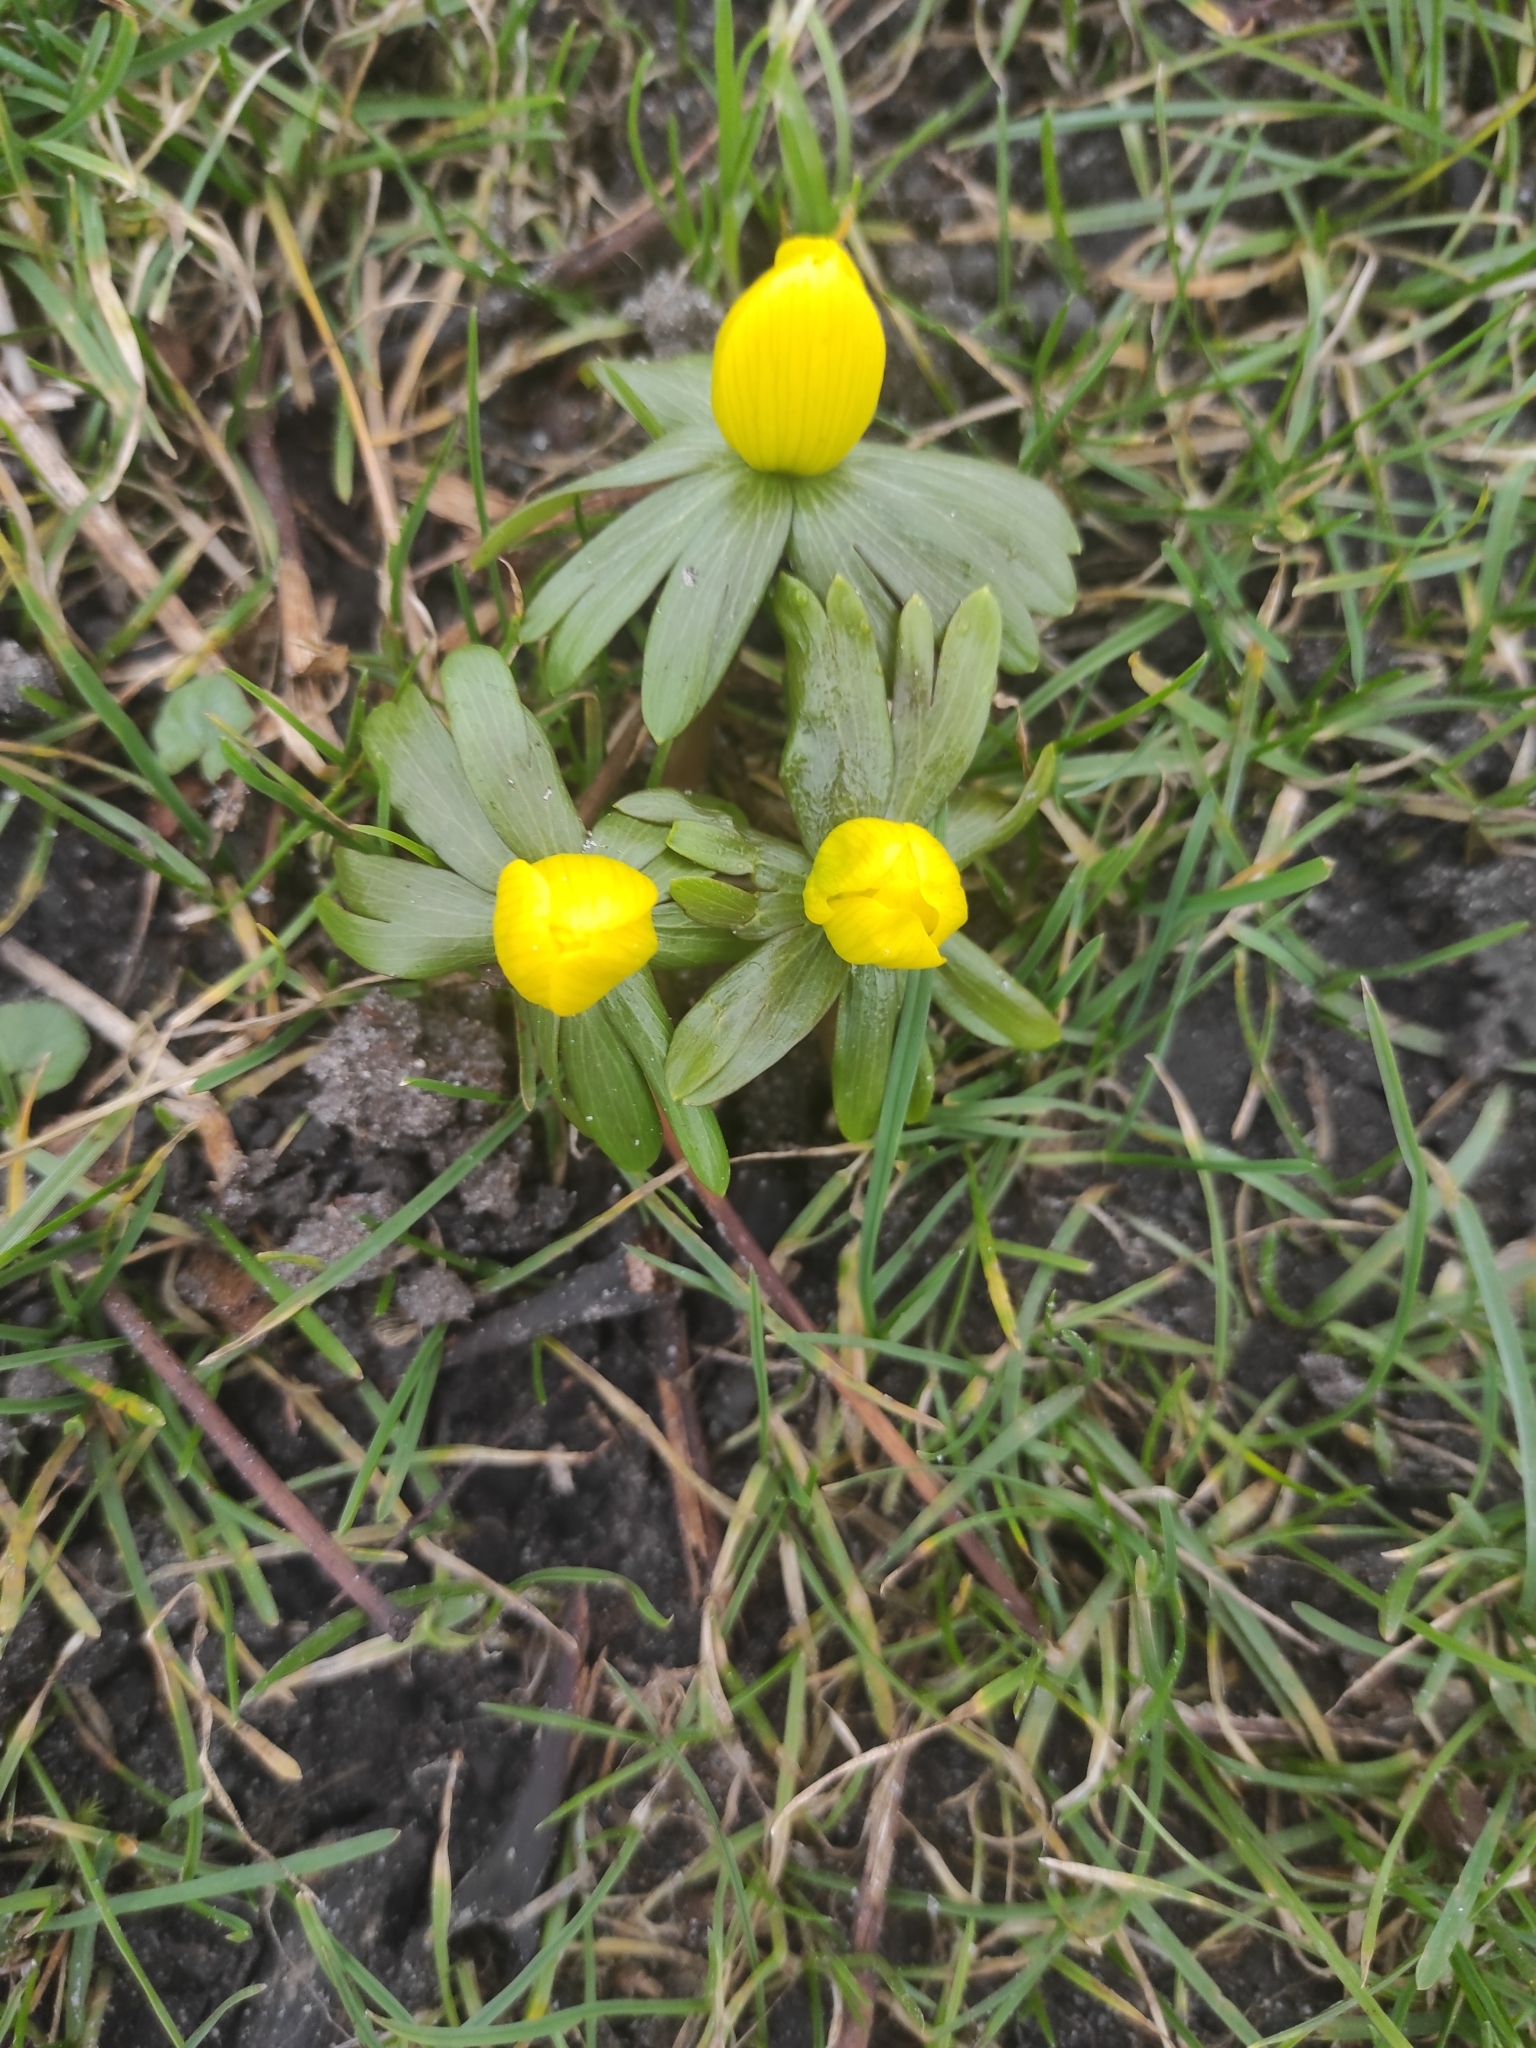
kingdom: Plantae
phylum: Tracheophyta
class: Magnoliopsida
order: Ranunculales
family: Ranunculaceae
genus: Eranthis
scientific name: Eranthis hyemalis
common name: Winter aconite
